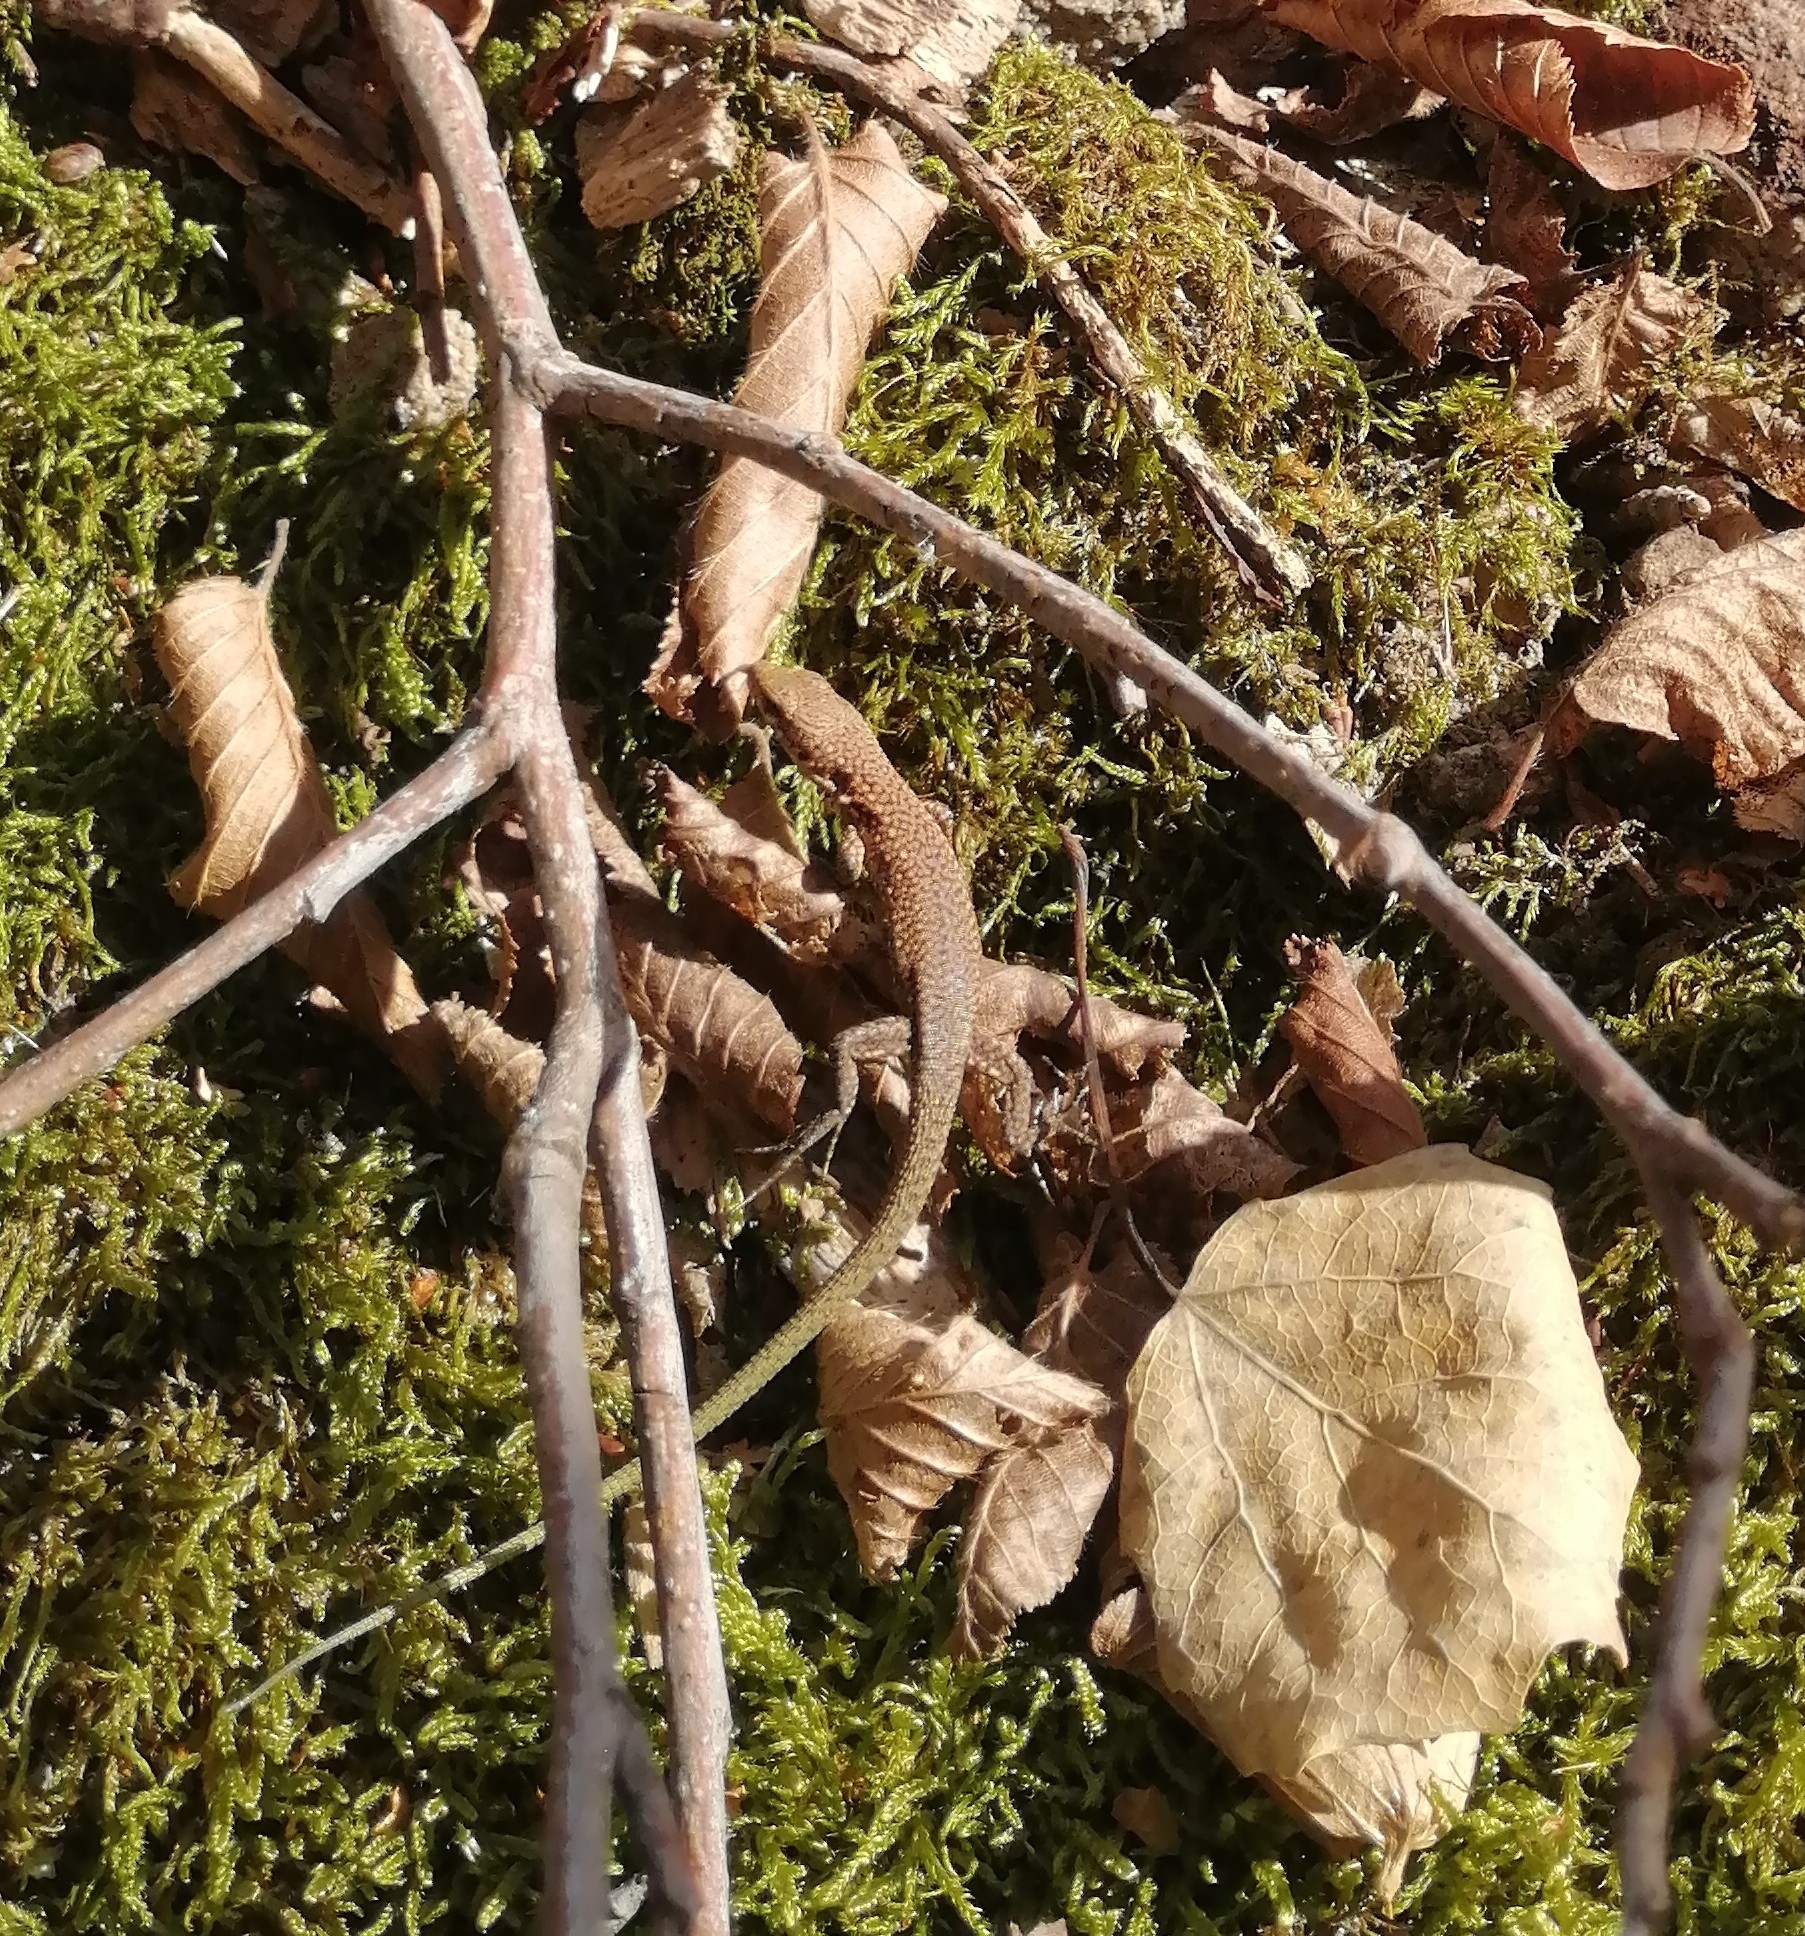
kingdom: Animalia
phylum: Chordata
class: Squamata
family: Lacertidae
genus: Darevskia
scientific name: Darevskia brauneri
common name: Brauner's rock lizard
